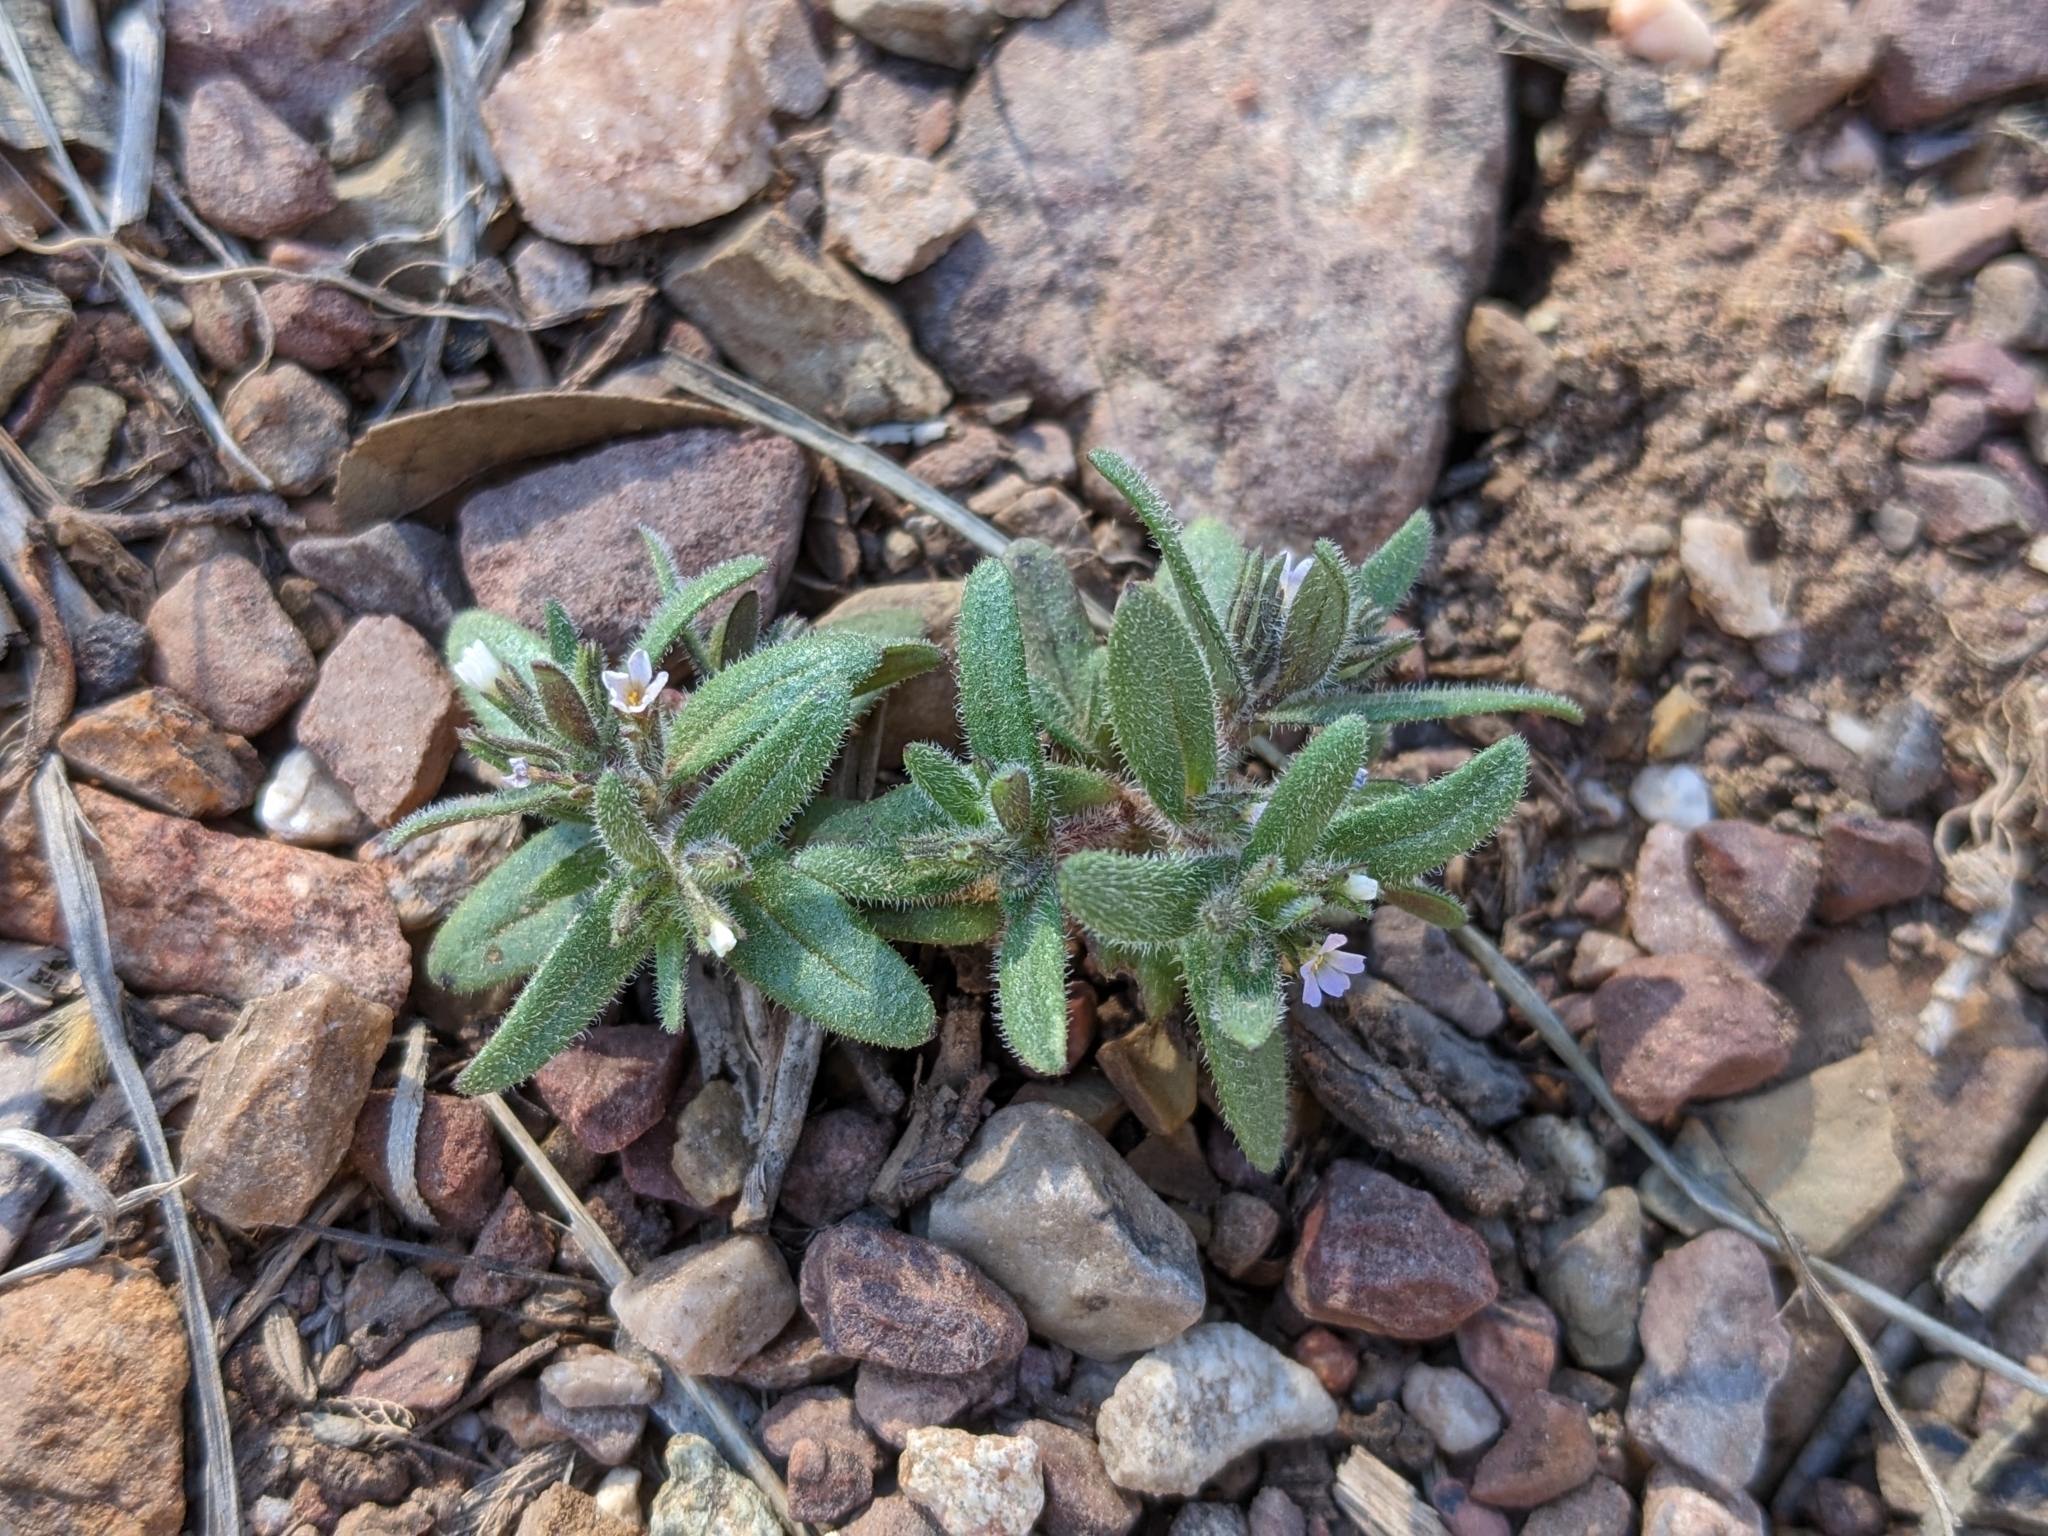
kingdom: Plantae
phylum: Tracheophyta
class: Magnoliopsida
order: Ericales
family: Polemoniaceae
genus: Phlox
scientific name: Phlox gracilis
